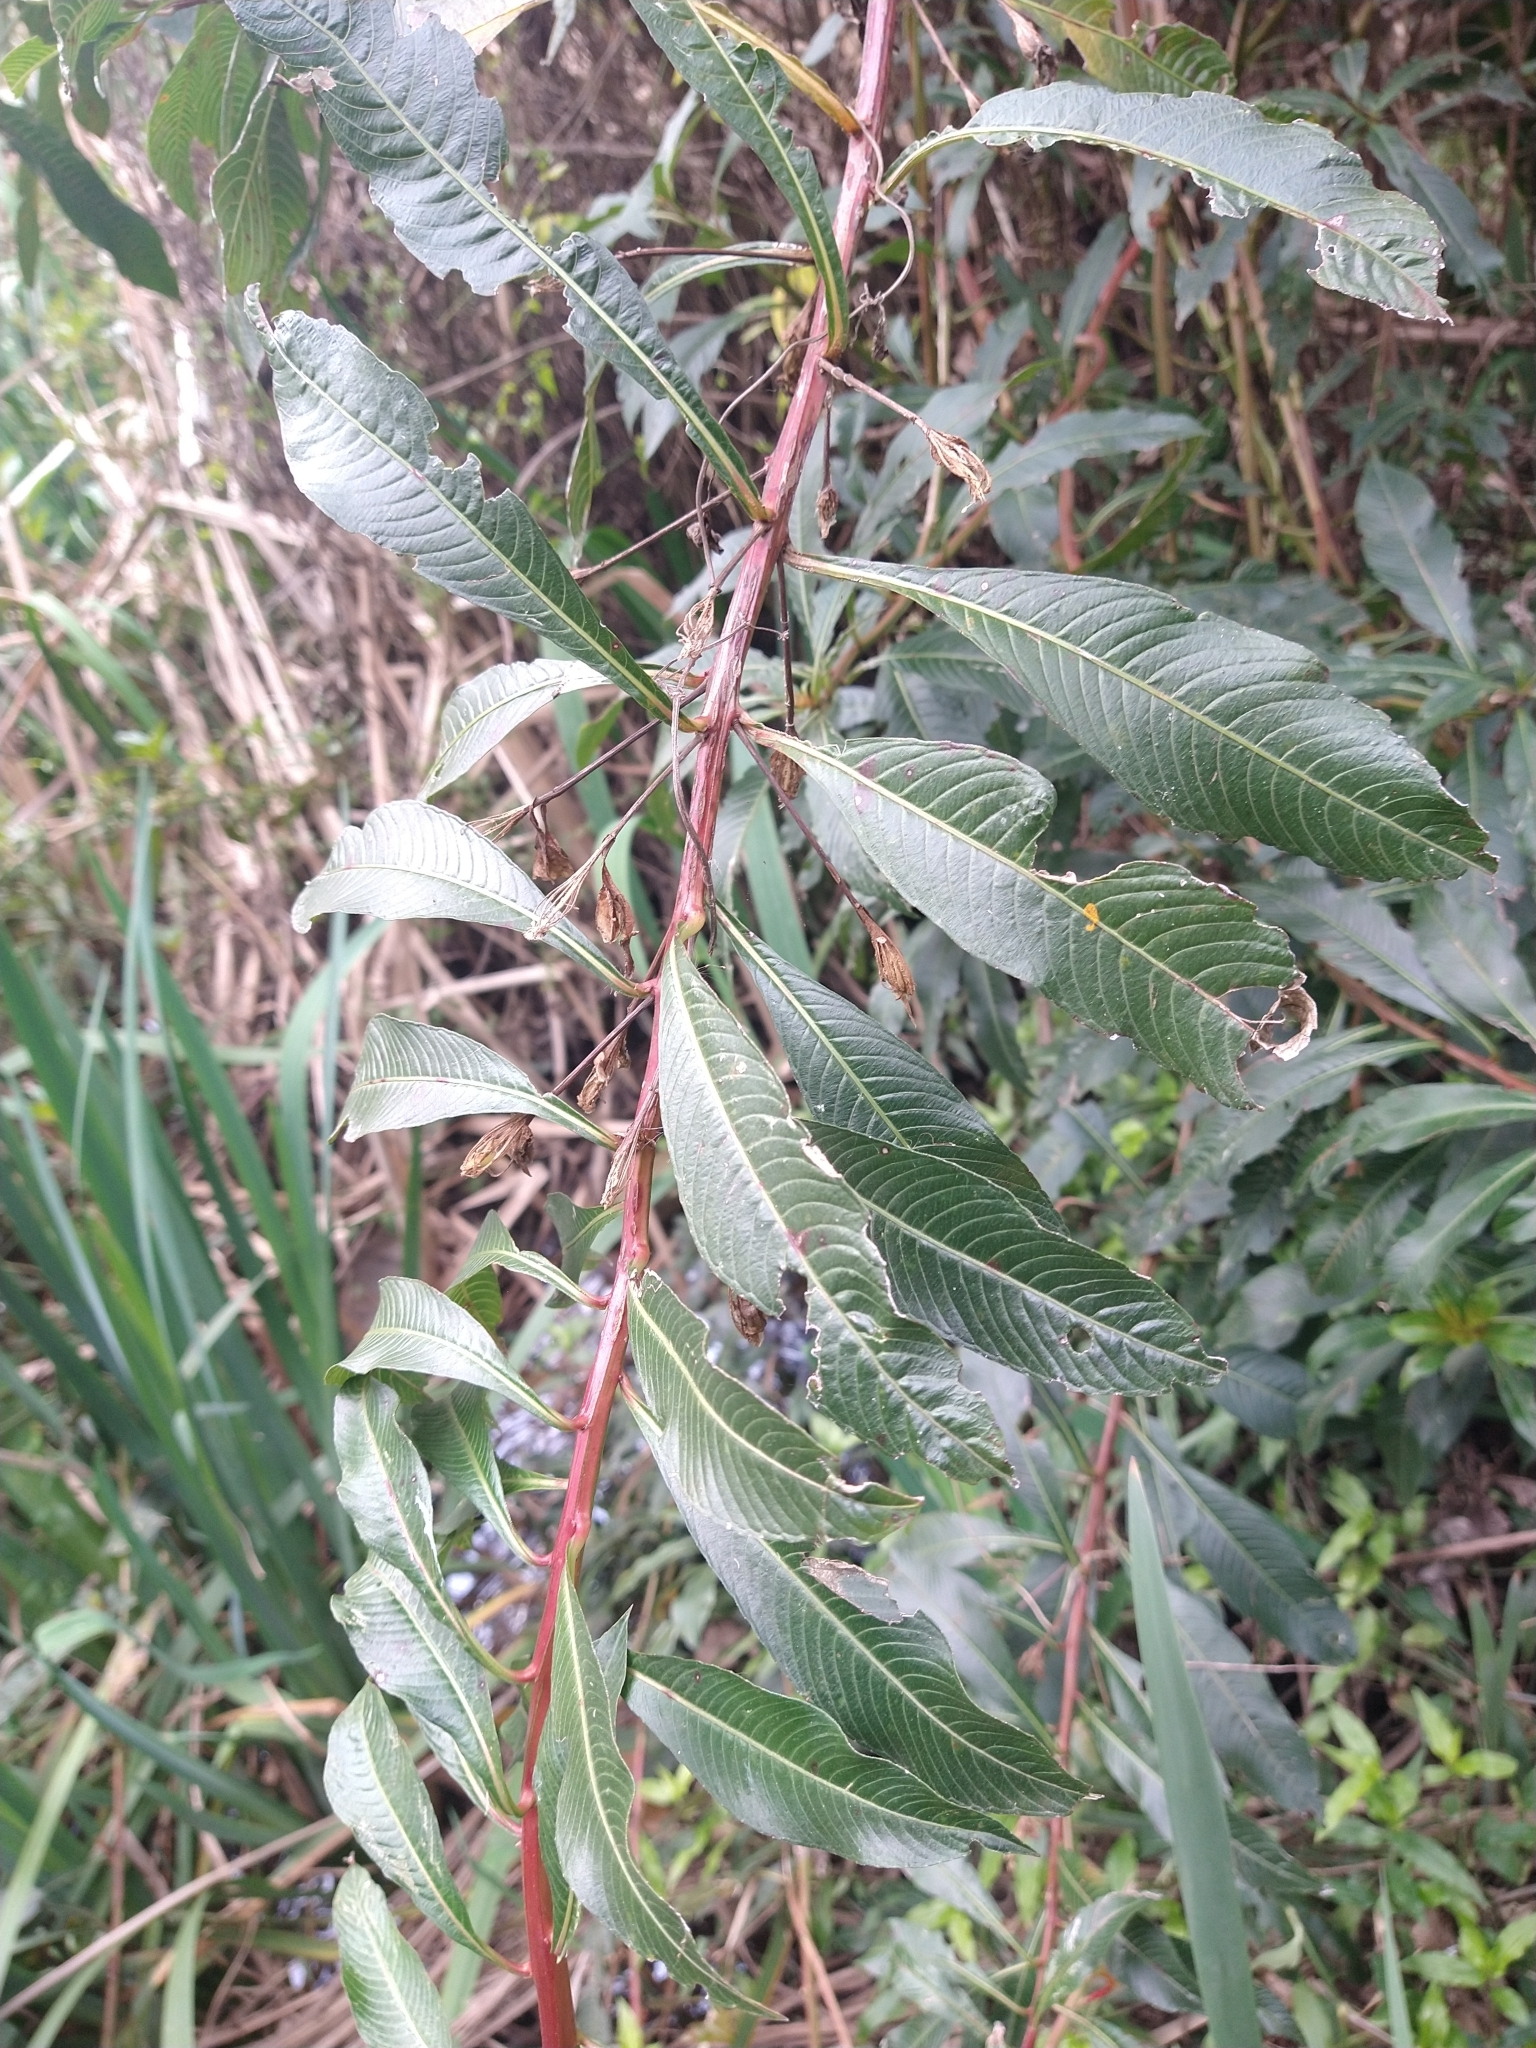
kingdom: Plantae
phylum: Tracheophyta
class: Magnoliopsida
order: Myrtales
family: Onagraceae
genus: Ludwigia
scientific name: Ludwigia elegans
